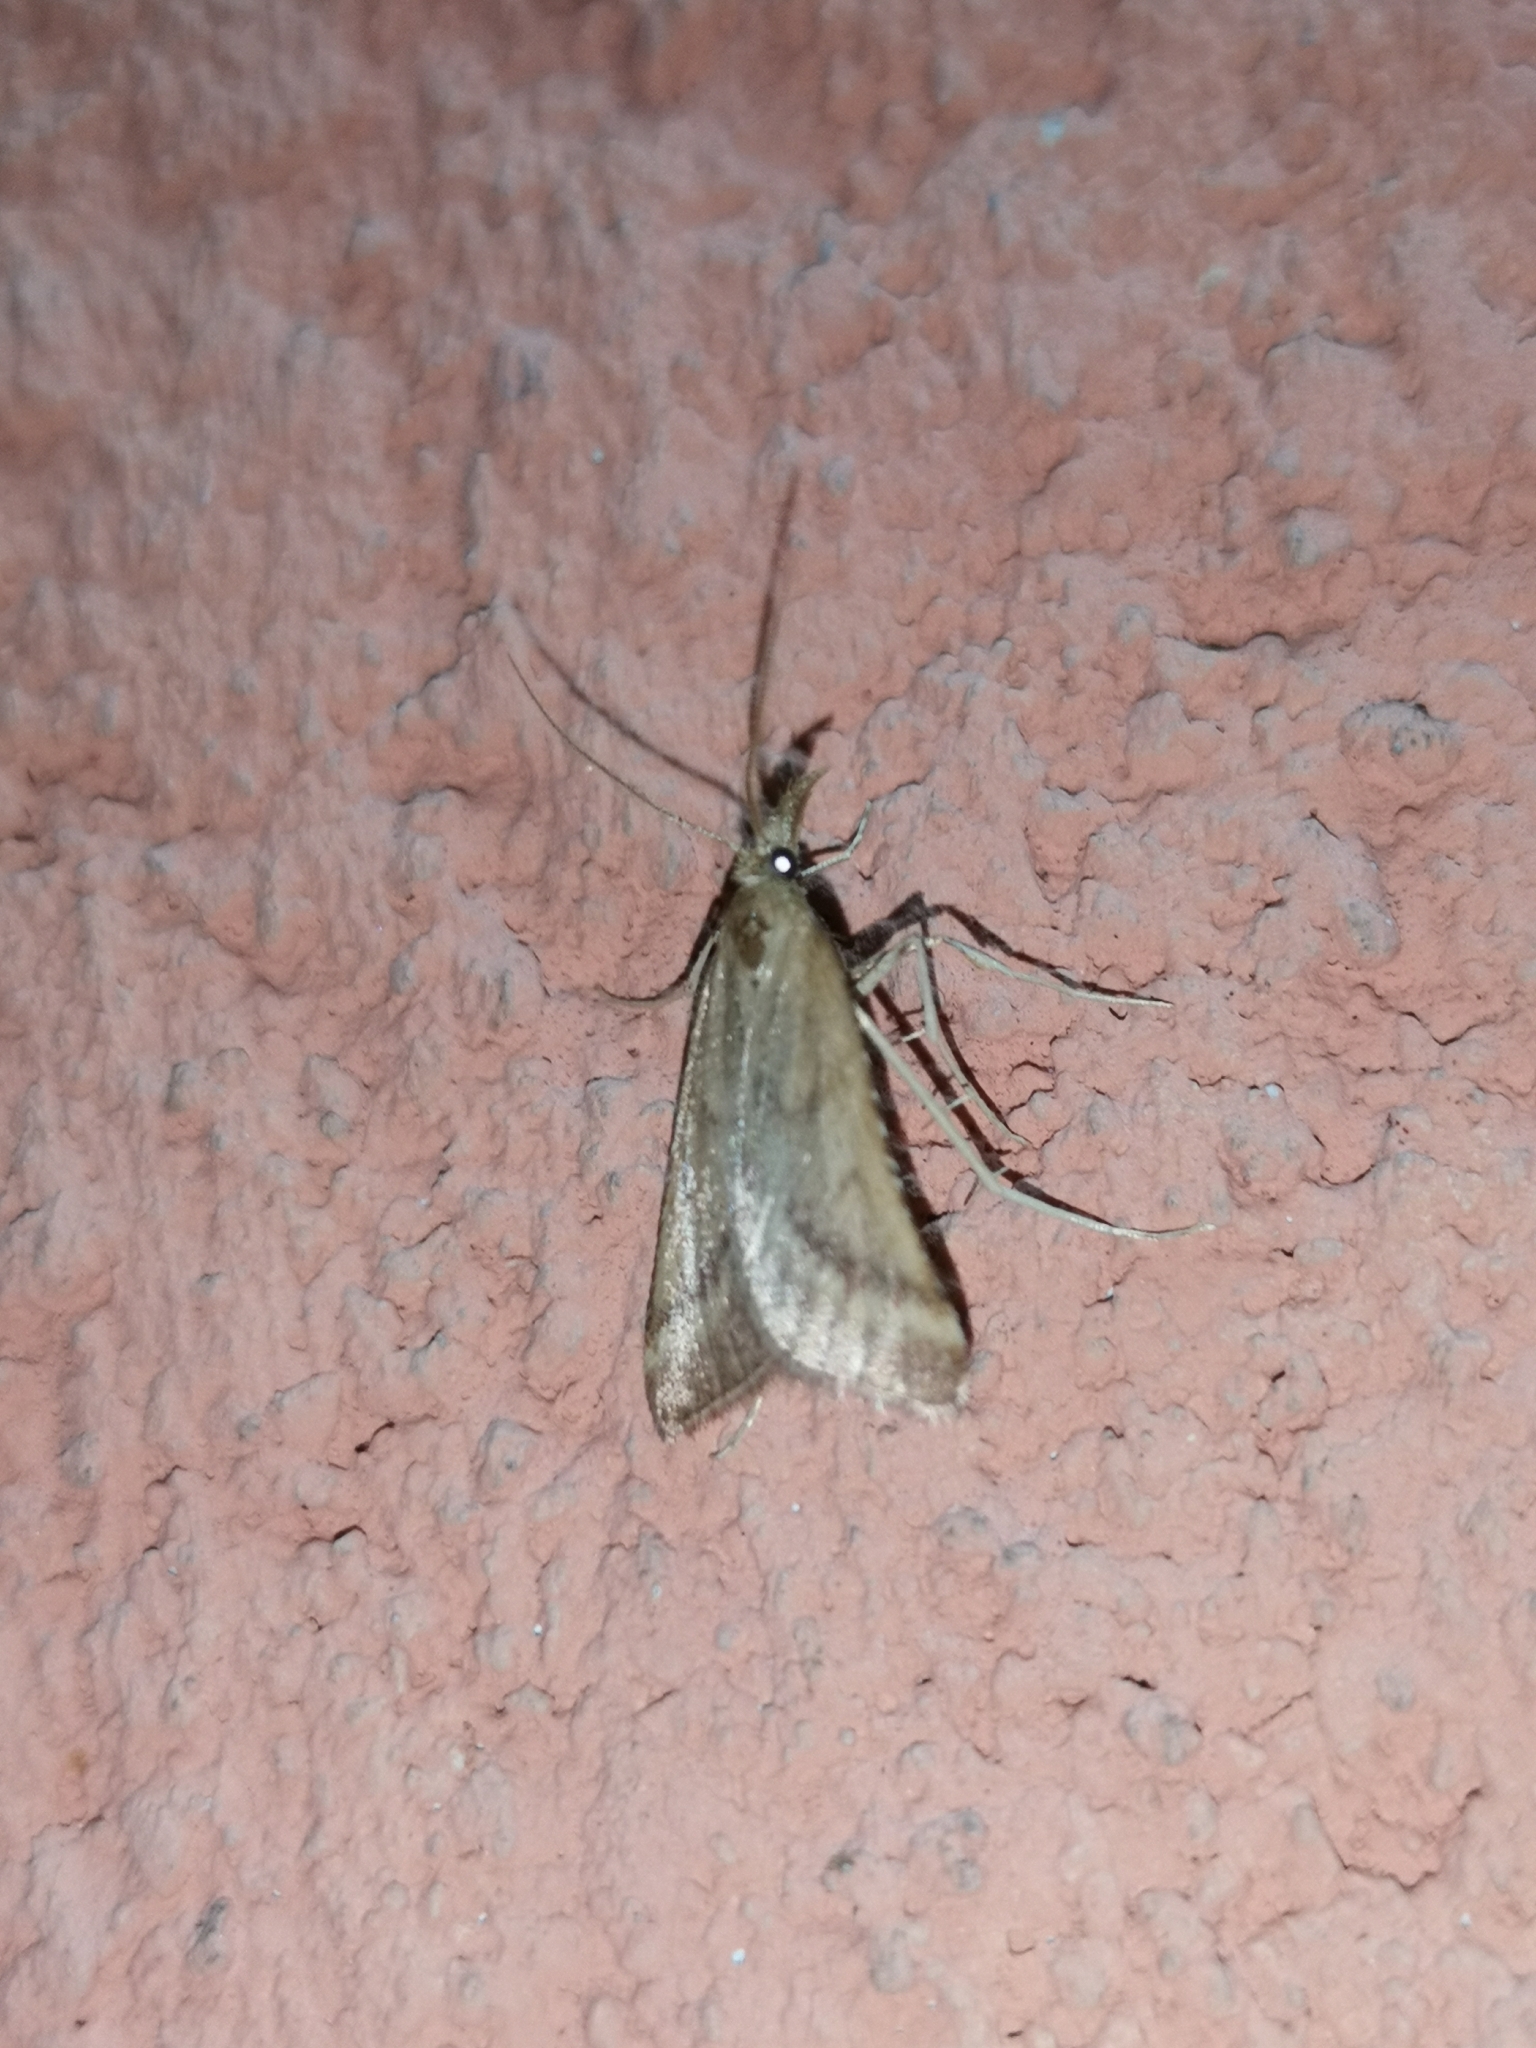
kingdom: Animalia
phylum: Arthropoda
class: Insecta
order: Lepidoptera
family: Pyralidae
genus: Synaphe
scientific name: Synaphe punctalis
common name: Long-legged tabby
